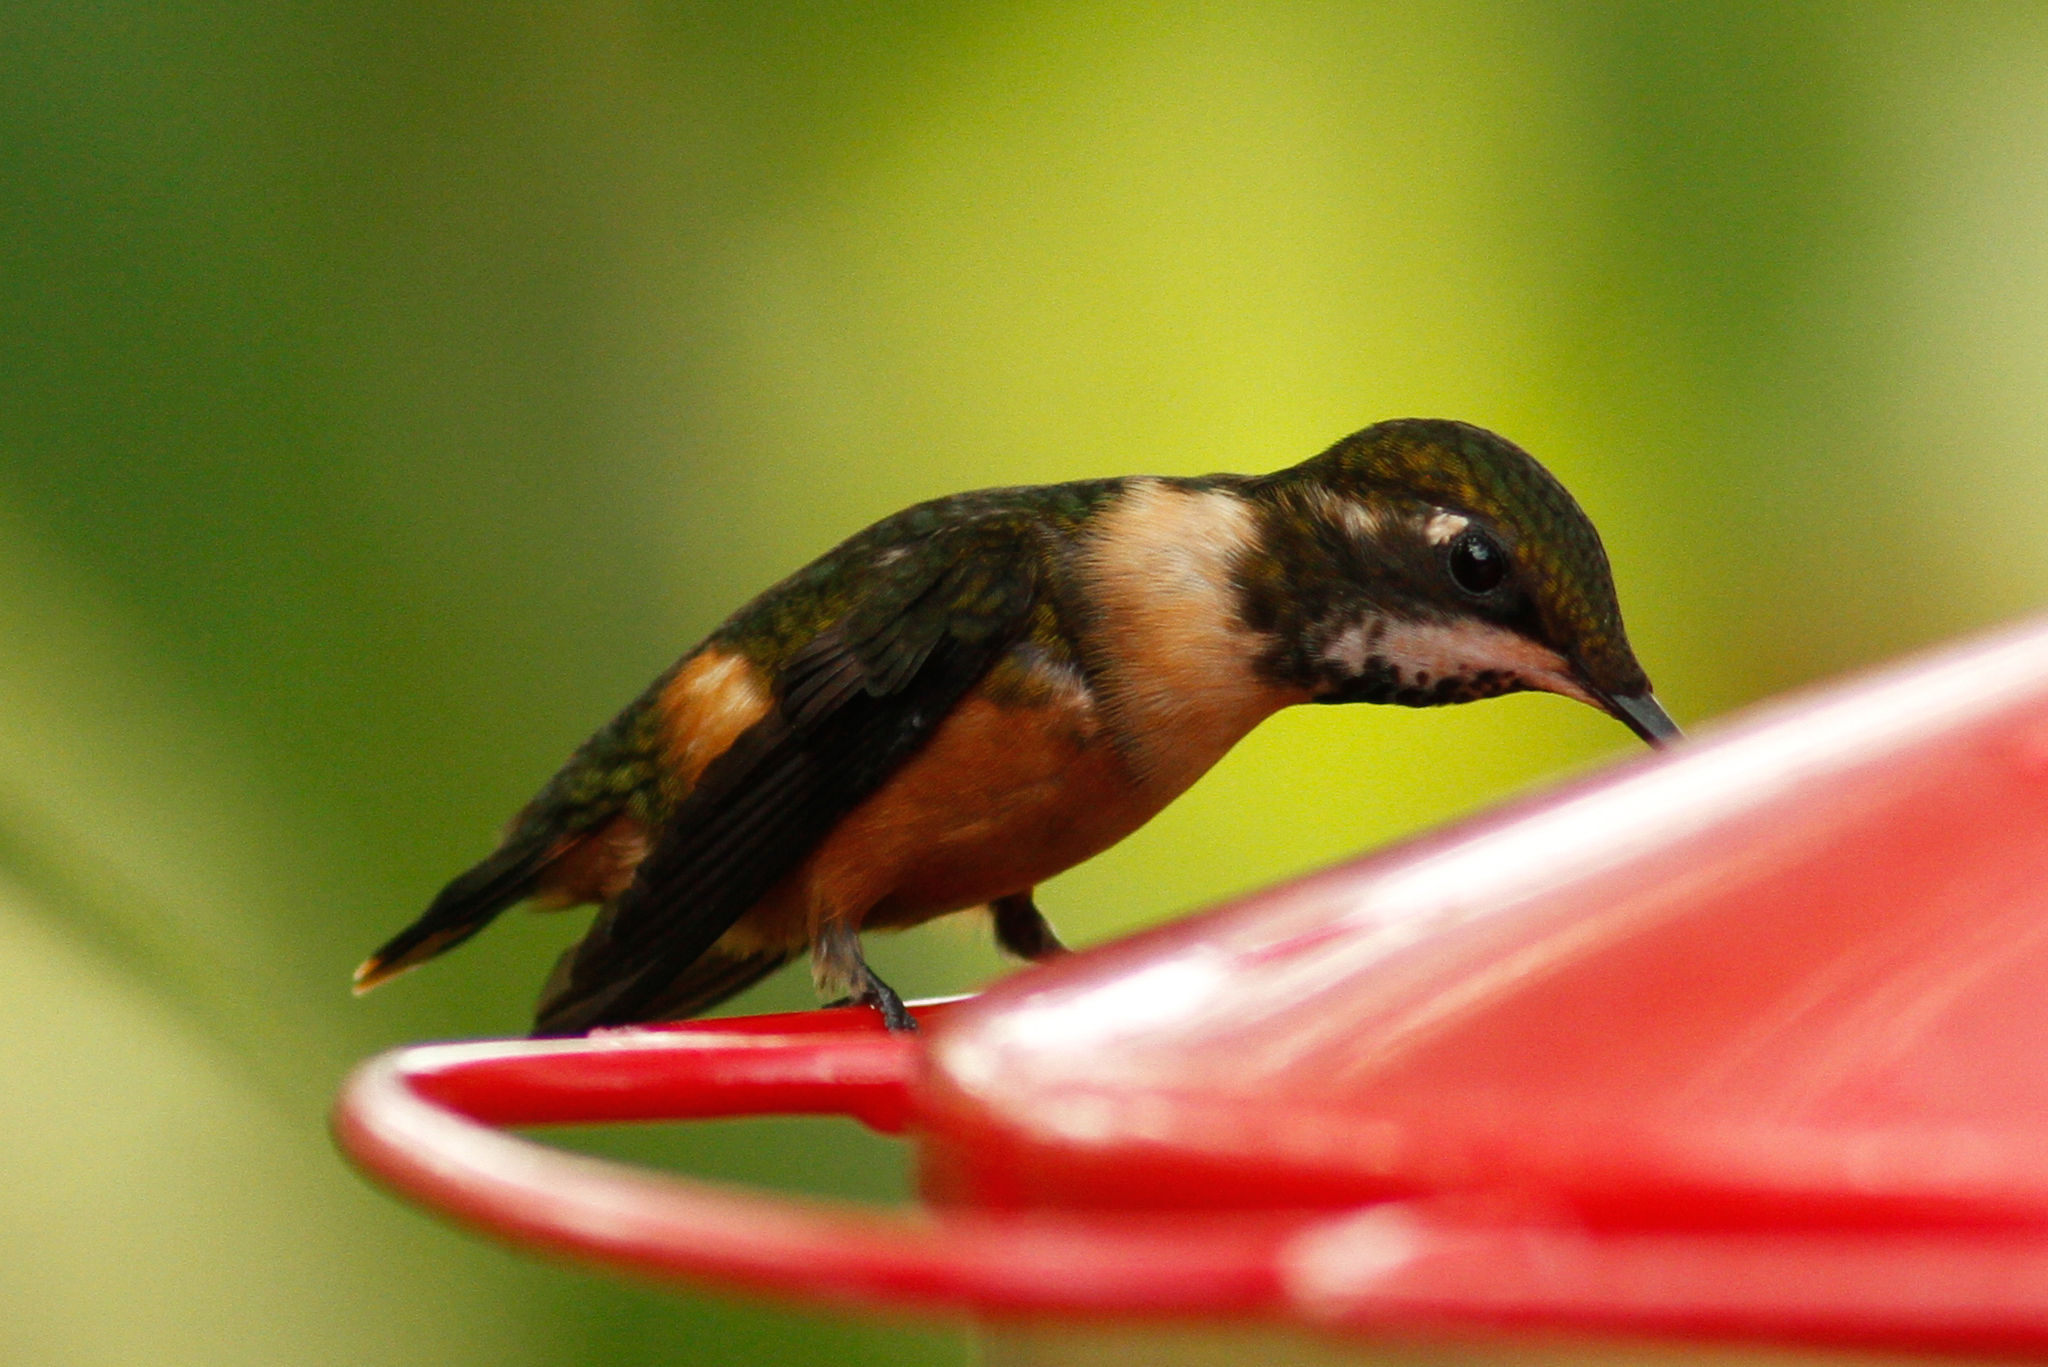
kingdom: Animalia
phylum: Chordata
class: Aves
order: Apodiformes
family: Trochilidae
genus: Calliphlox
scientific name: Calliphlox mitchellii
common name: Purple-throated woodstar
